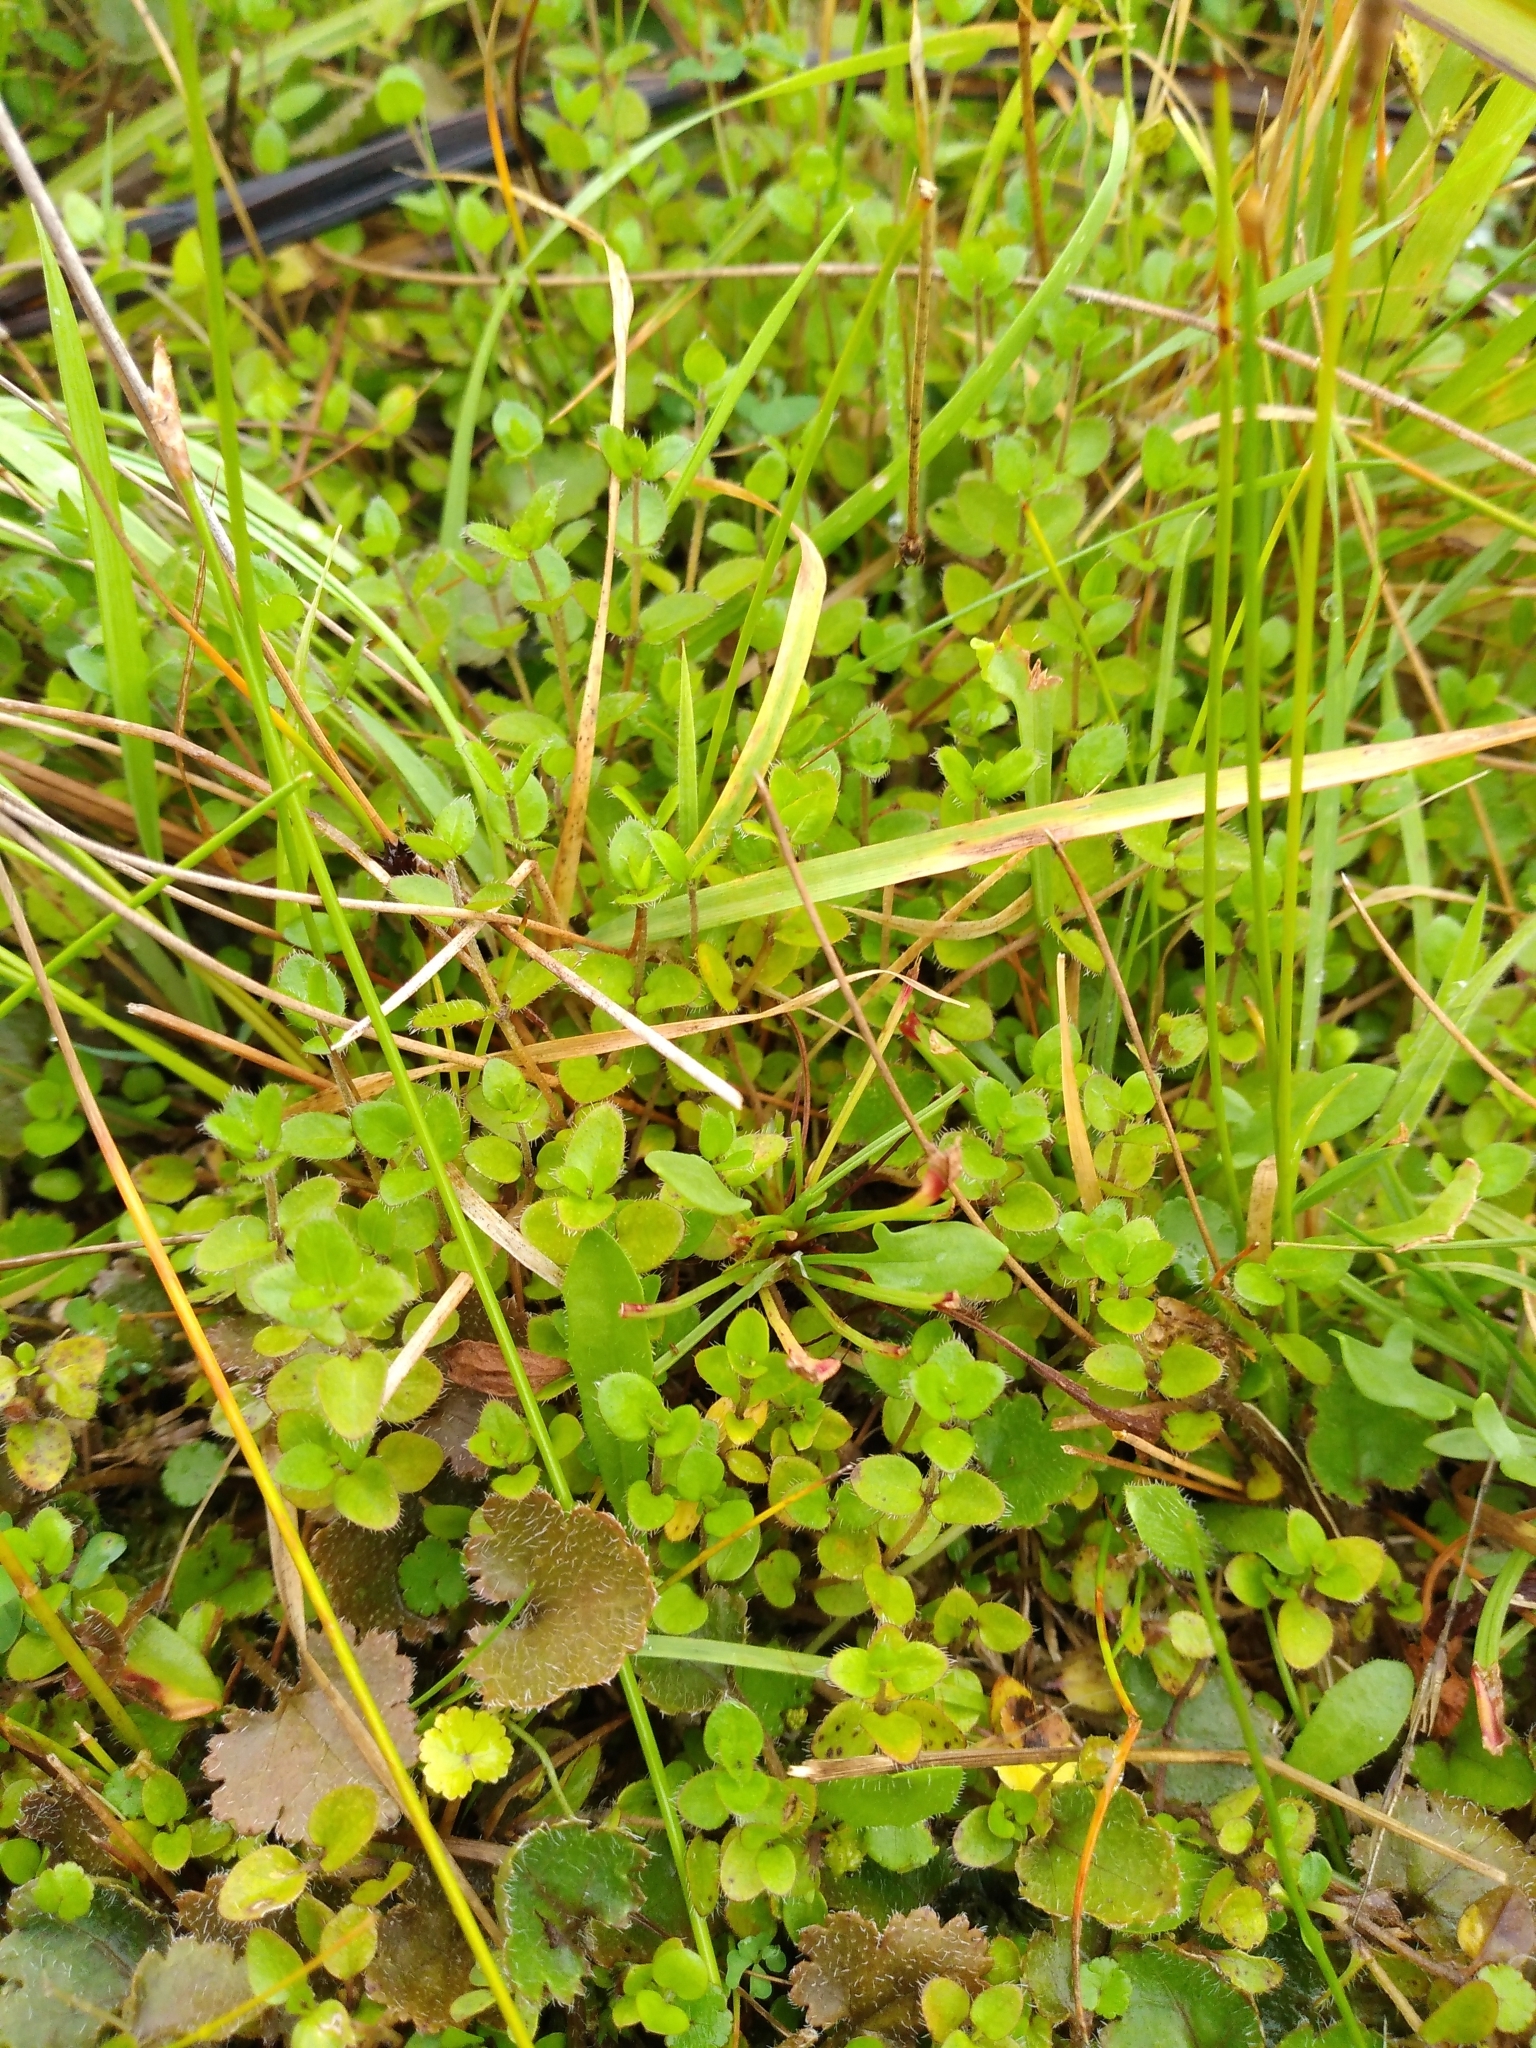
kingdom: Plantae
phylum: Tracheophyta
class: Magnoliopsida
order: Gentianales
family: Rubiaceae
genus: Leptostigma
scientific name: Leptostigma setulosum
